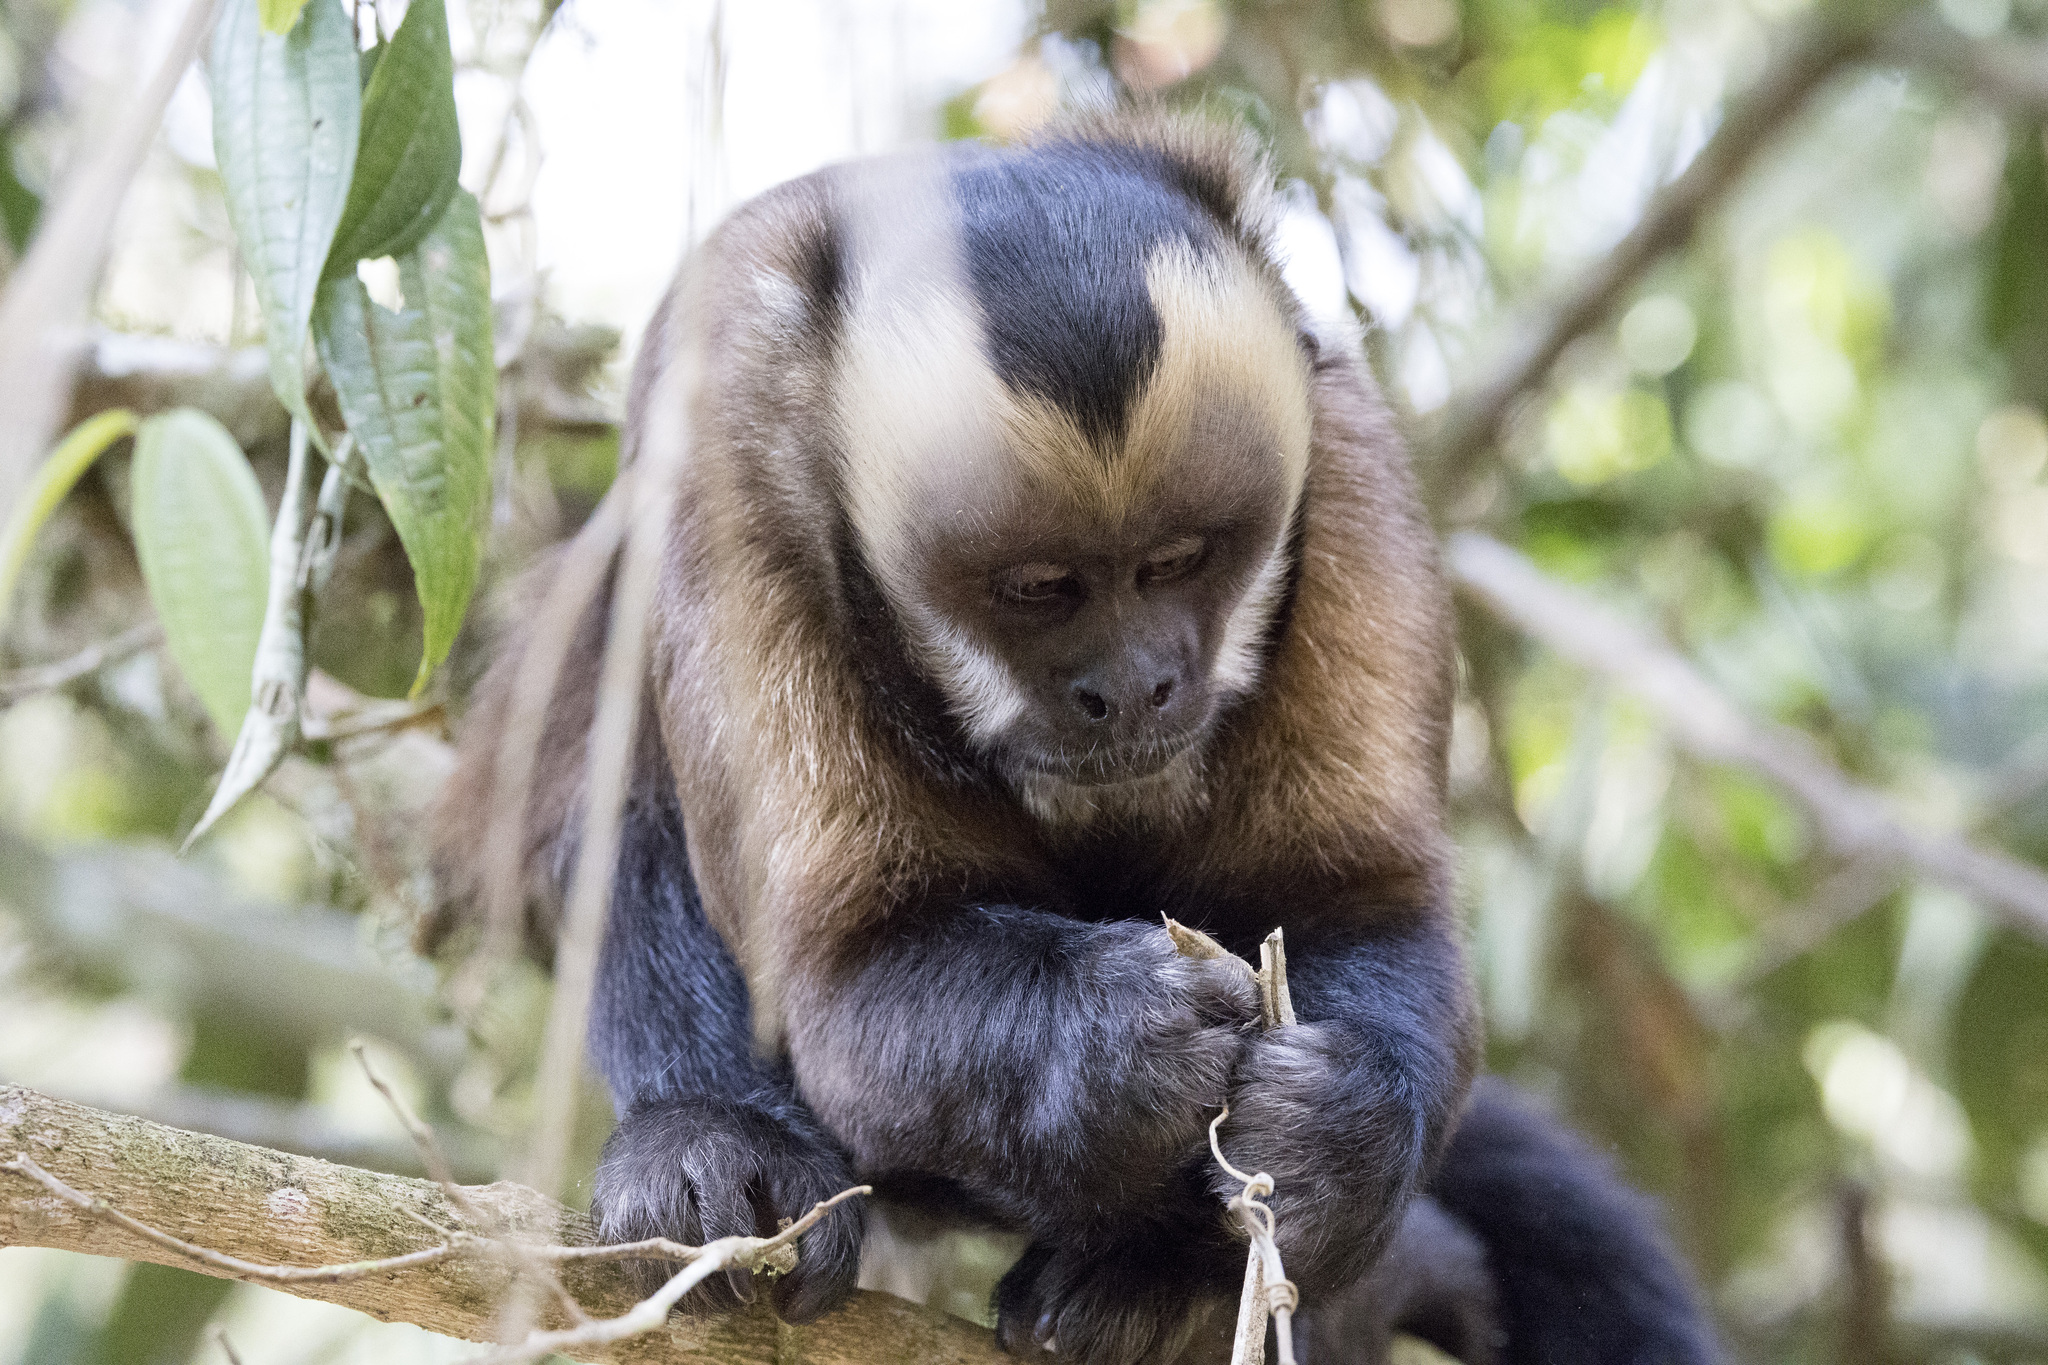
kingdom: Animalia
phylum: Chordata
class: Mammalia
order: Primates
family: Cebidae
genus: Sapajus
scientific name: Sapajus apella
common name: Tufted capuchin
